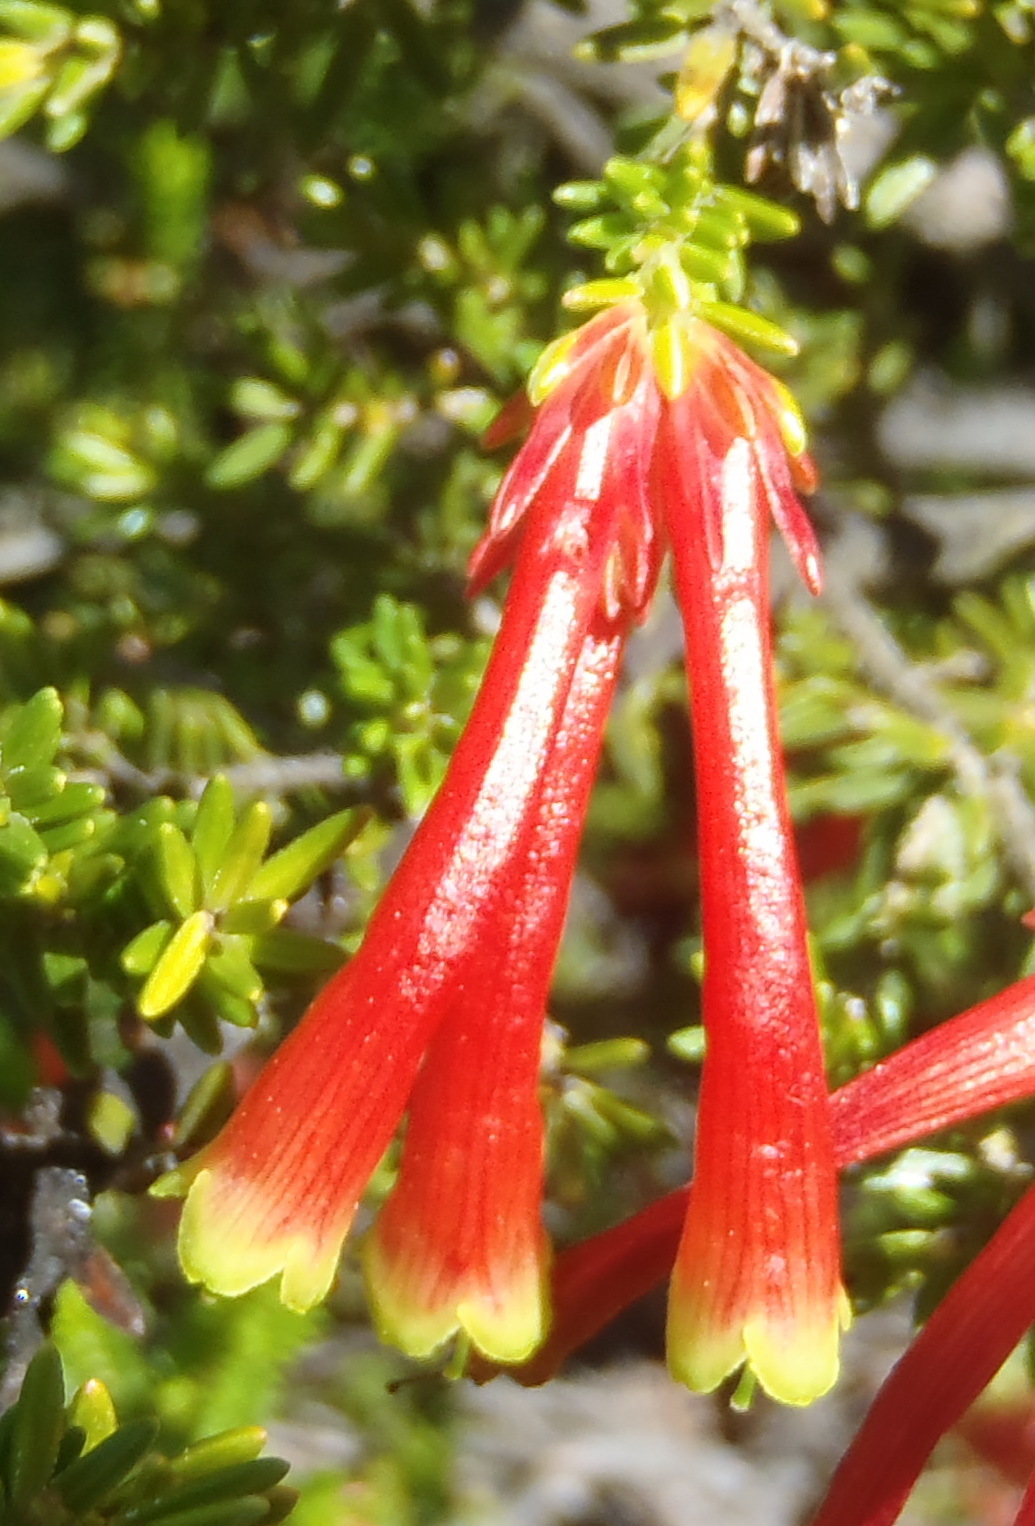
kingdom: Plantae
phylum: Tracheophyta
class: Magnoliopsida
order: Ericales
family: Ericaceae
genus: Erica
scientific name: Erica versicolor
